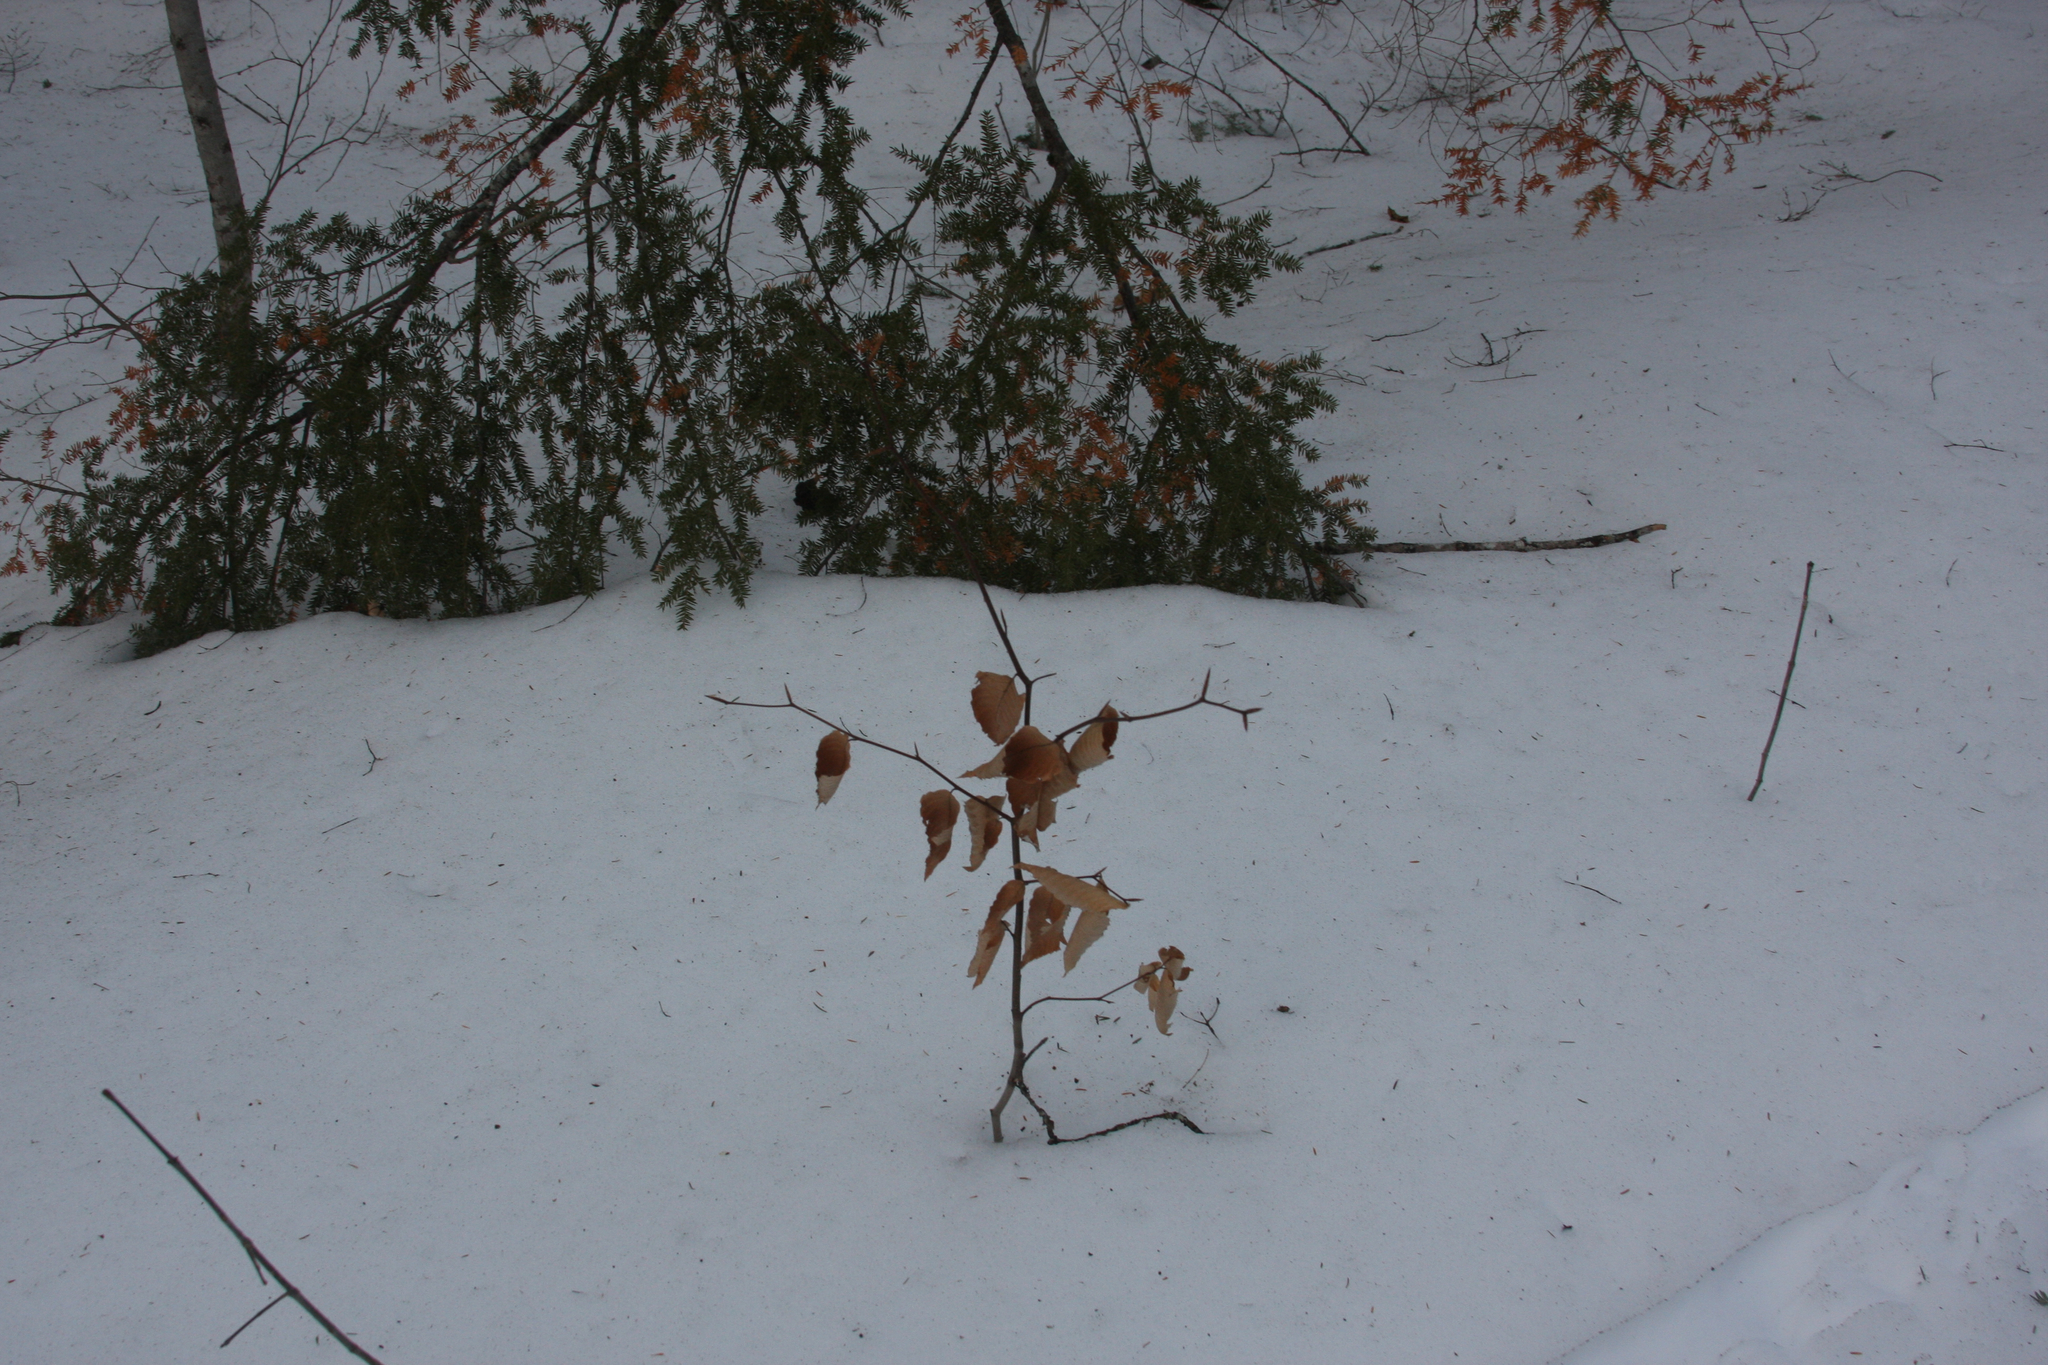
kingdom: Plantae
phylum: Tracheophyta
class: Magnoliopsida
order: Fagales
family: Fagaceae
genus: Fagus
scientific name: Fagus grandifolia
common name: American beech
